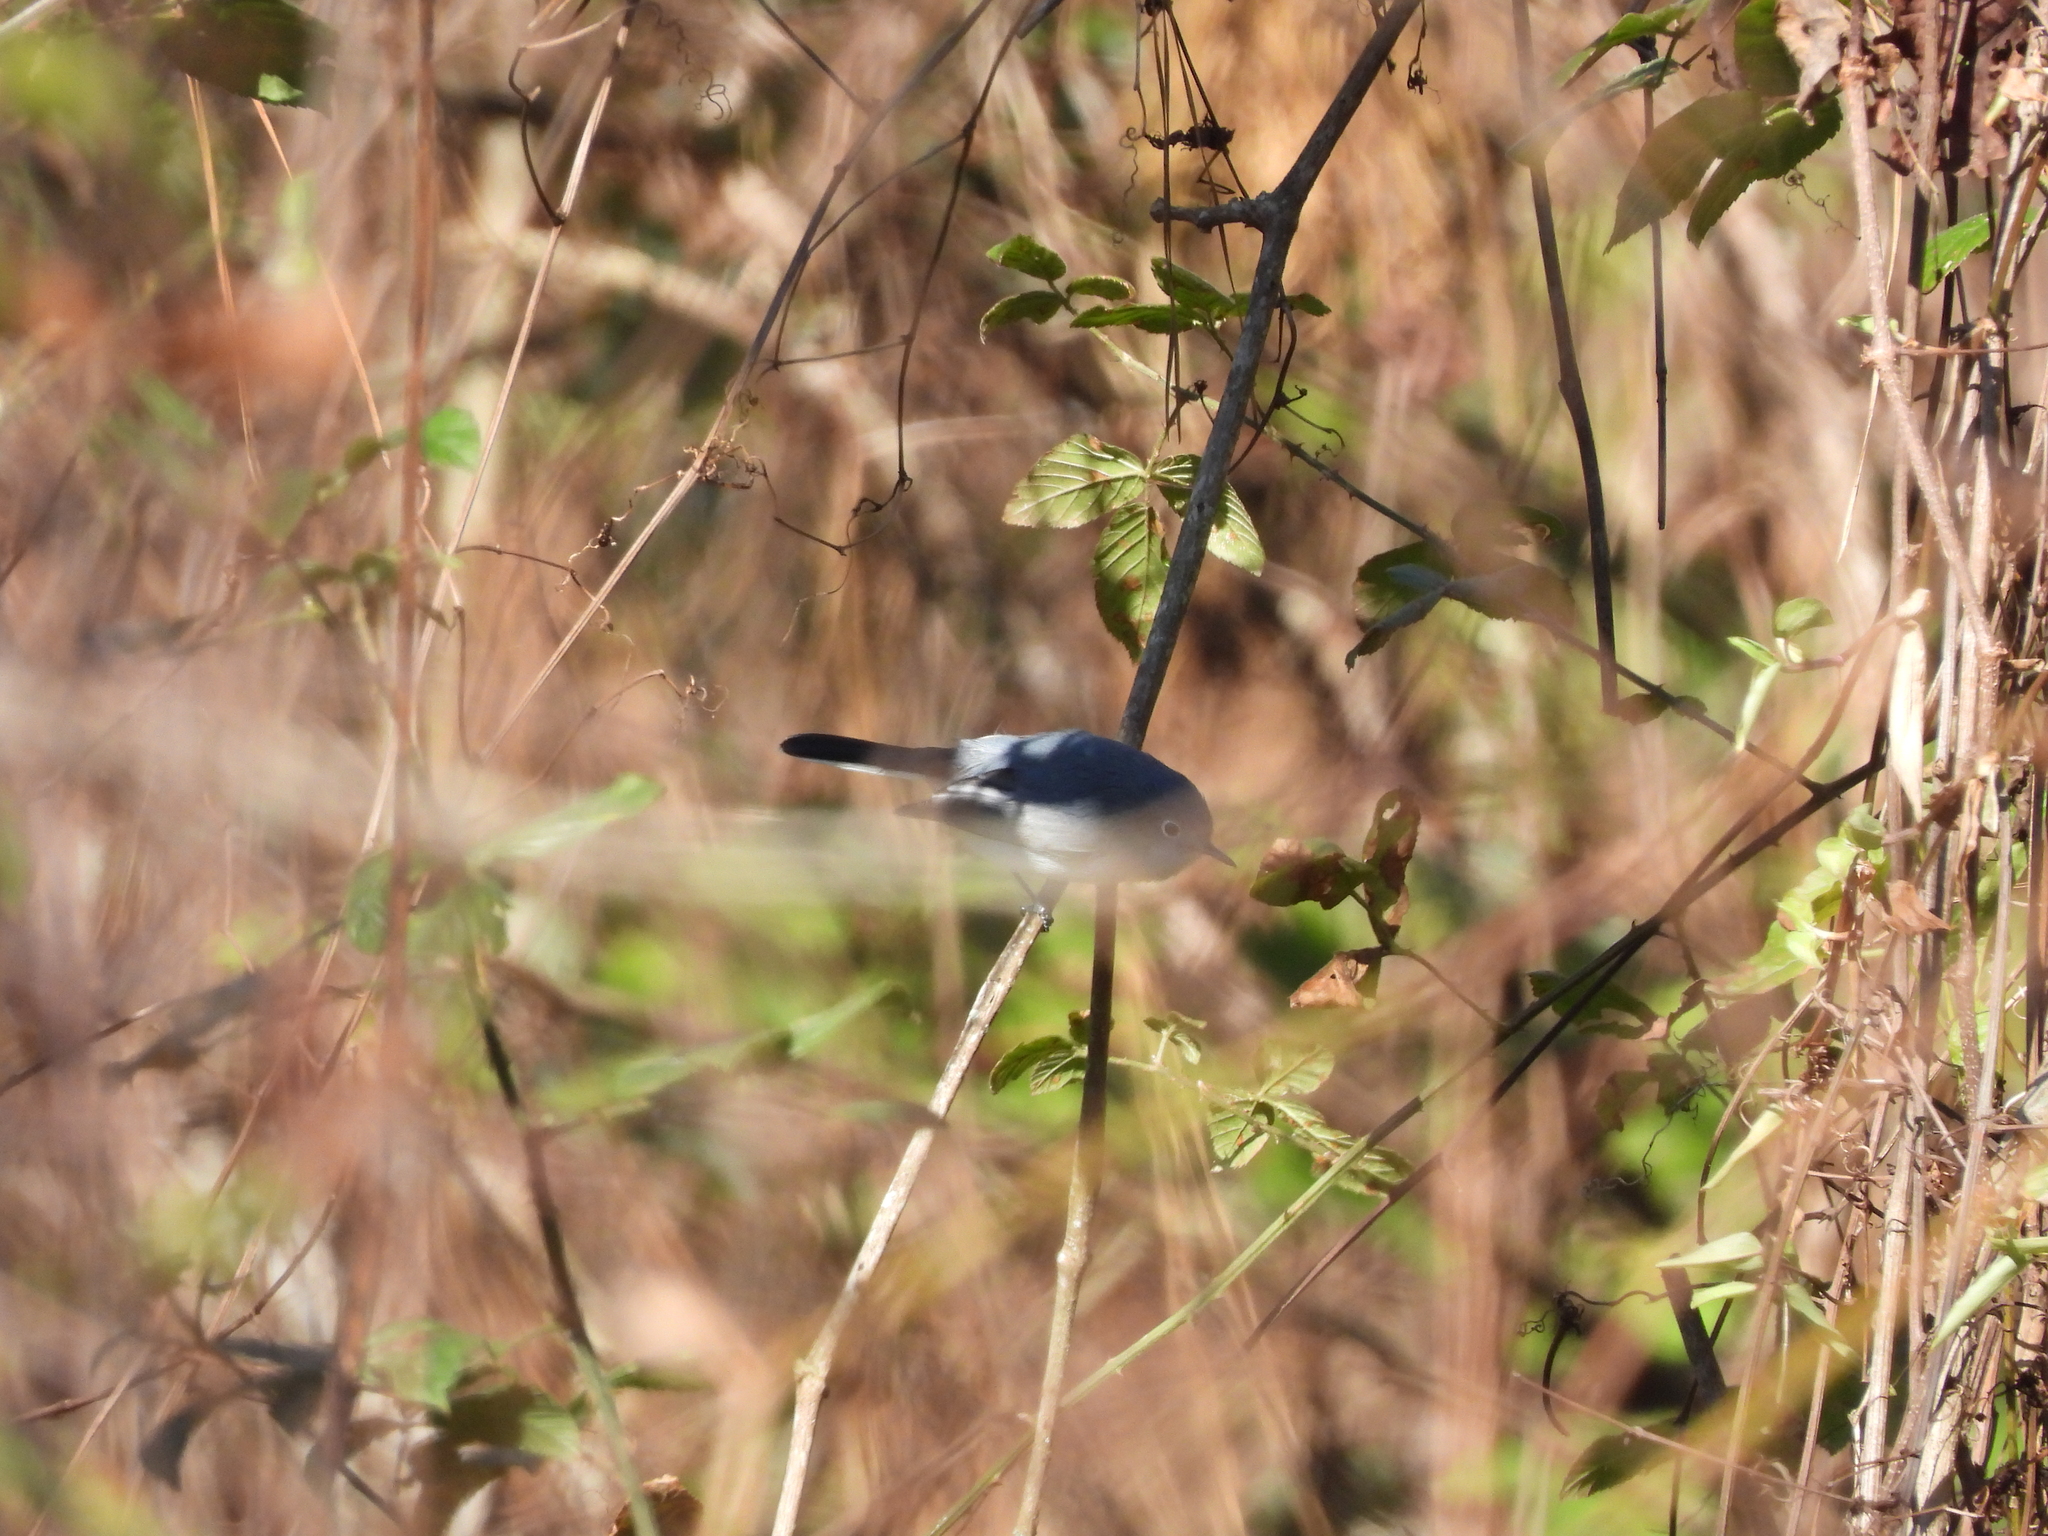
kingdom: Animalia
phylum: Chordata
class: Aves
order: Passeriformes
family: Polioptilidae
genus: Polioptila
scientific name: Polioptila caerulea
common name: Blue-gray gnatcatcher
